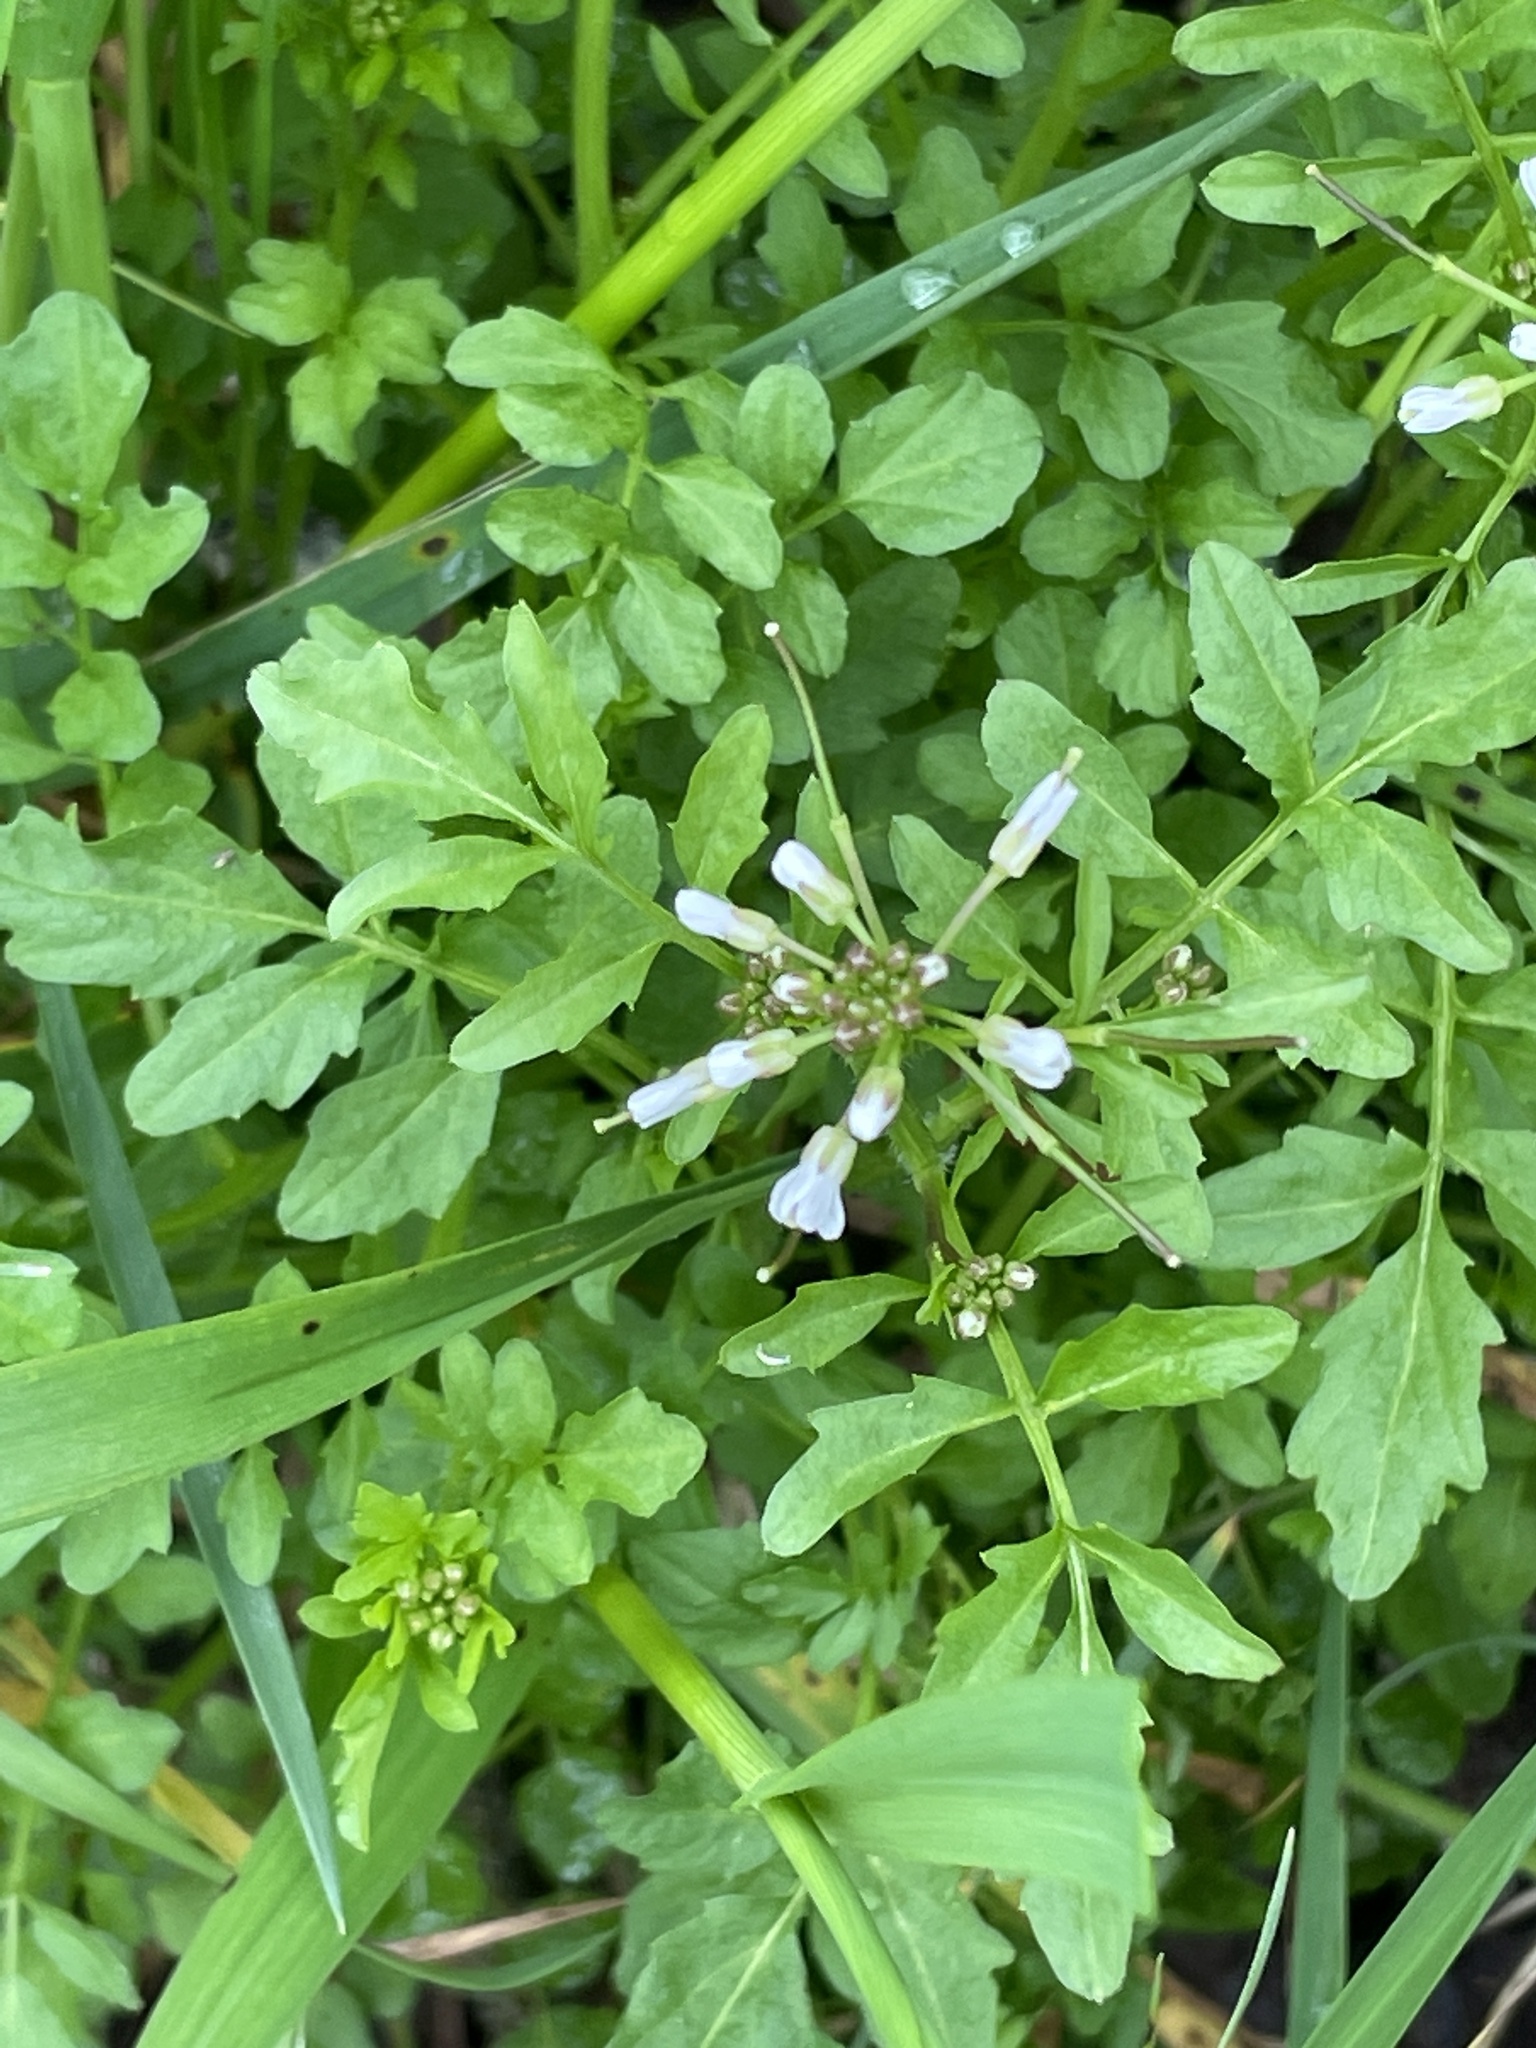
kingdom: Plantae
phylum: Tracheophyta
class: Magnoliopsida
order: Brassicales
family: Brassicaceae
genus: Cardamine
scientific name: Cardamine flexuosa
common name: Woodland bittercress
